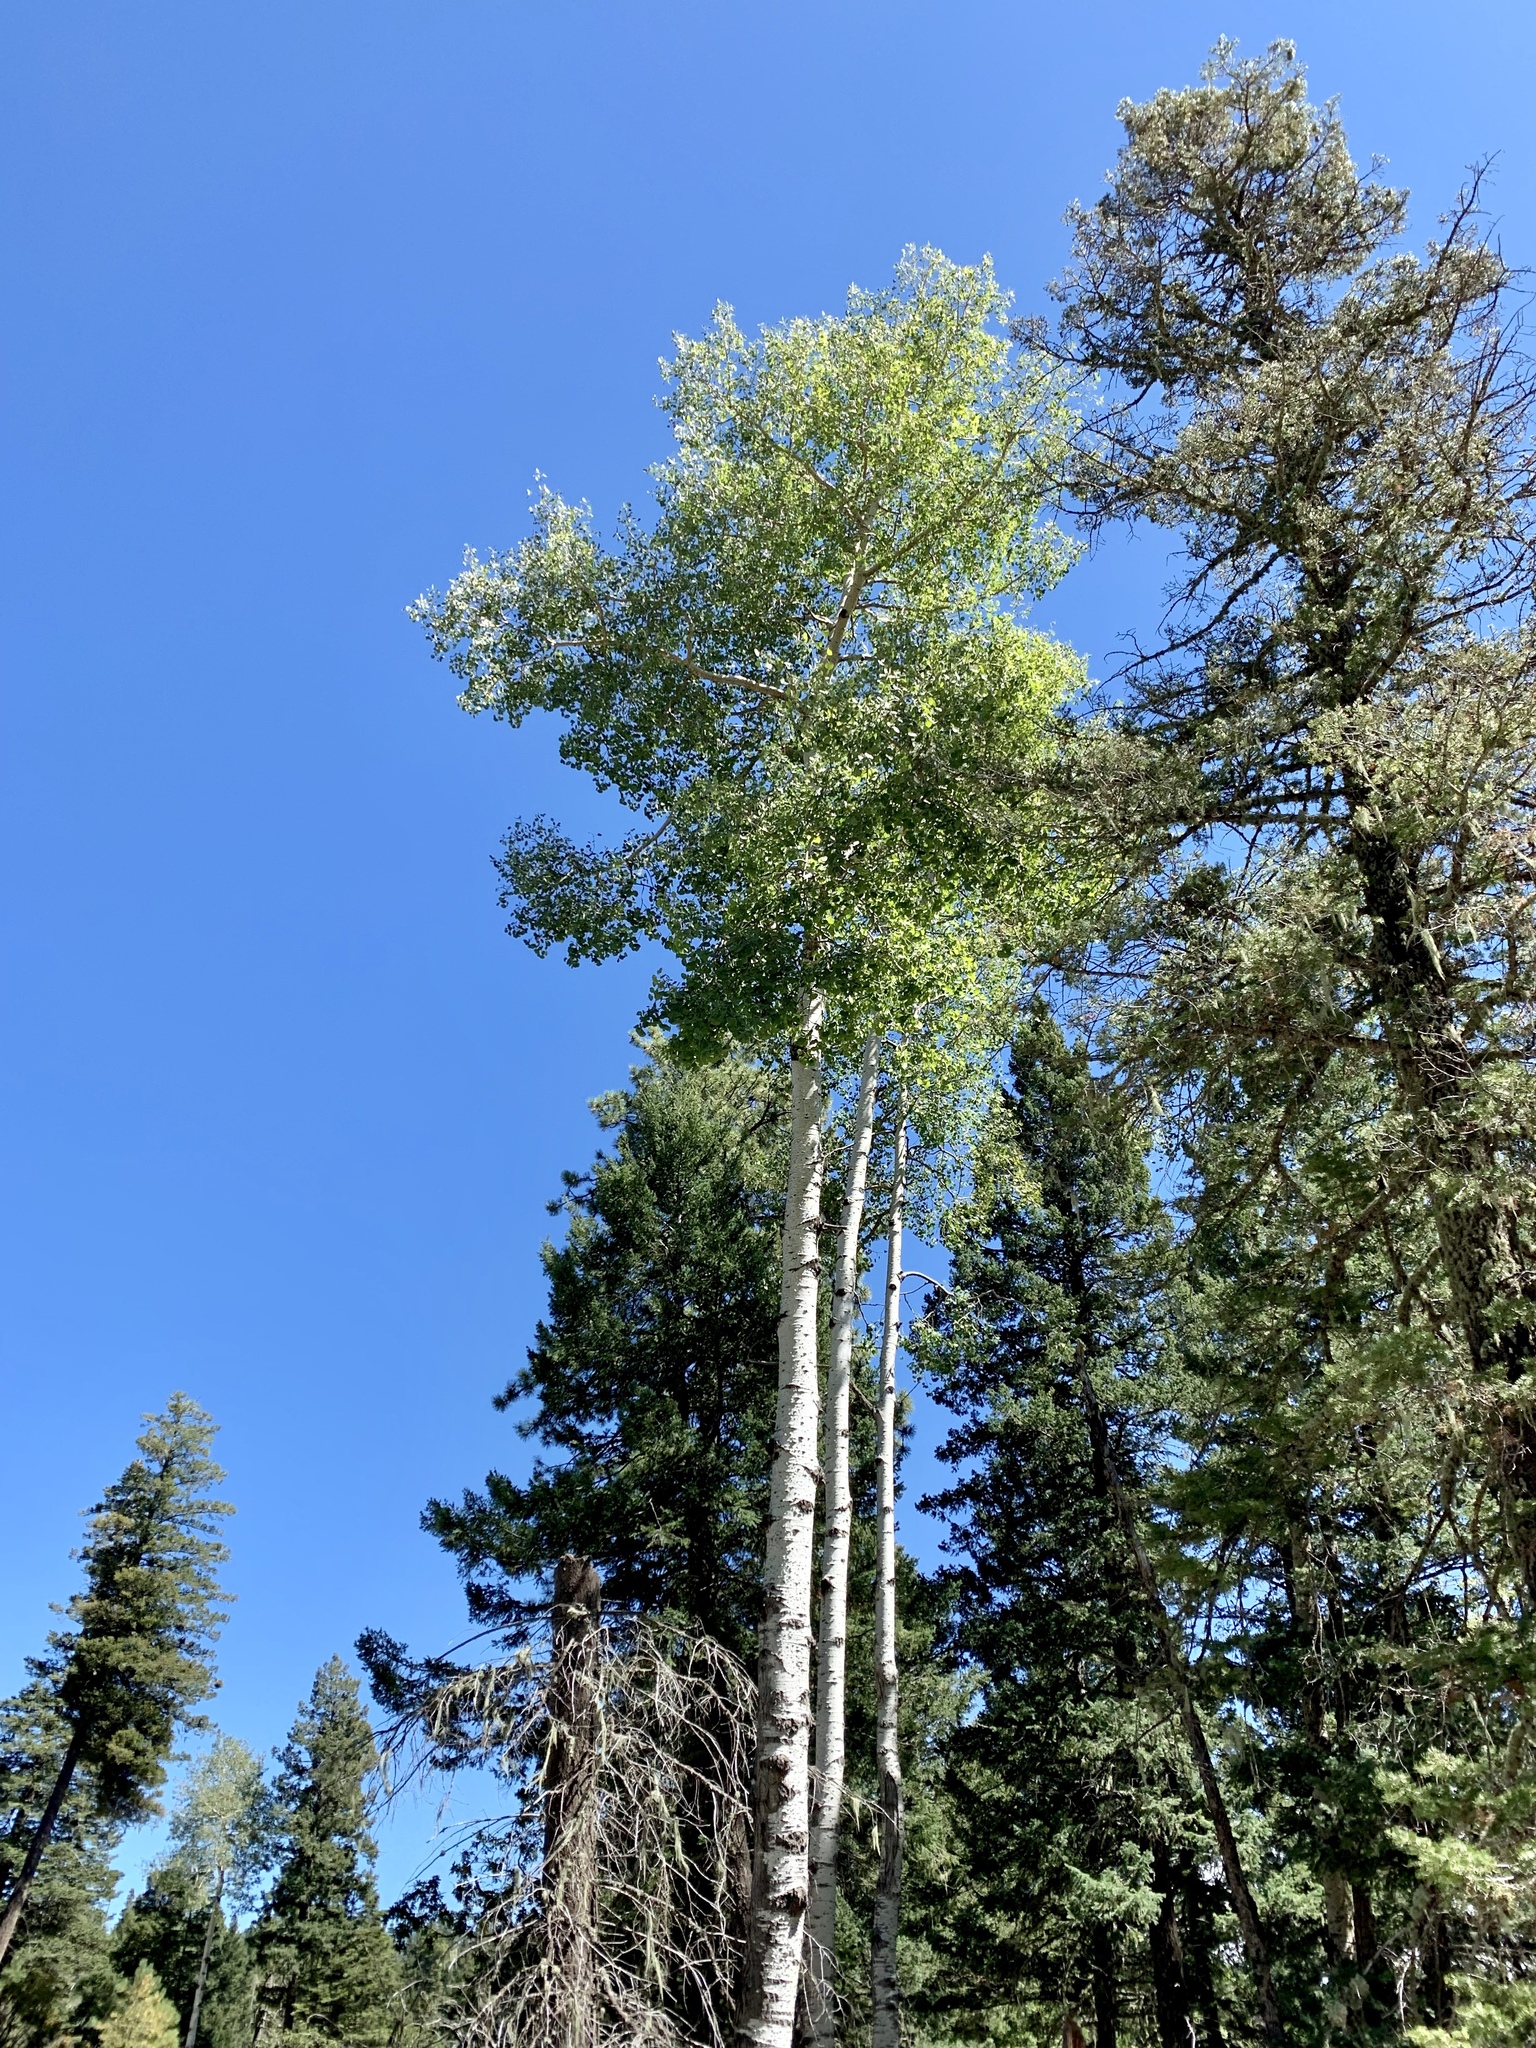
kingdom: Plantae
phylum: Tracheophyta
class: Magnoliopsida
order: Malpighiales
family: Salicaceae
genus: Populus
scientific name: Populus tremuloides
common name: Quaking aspen
